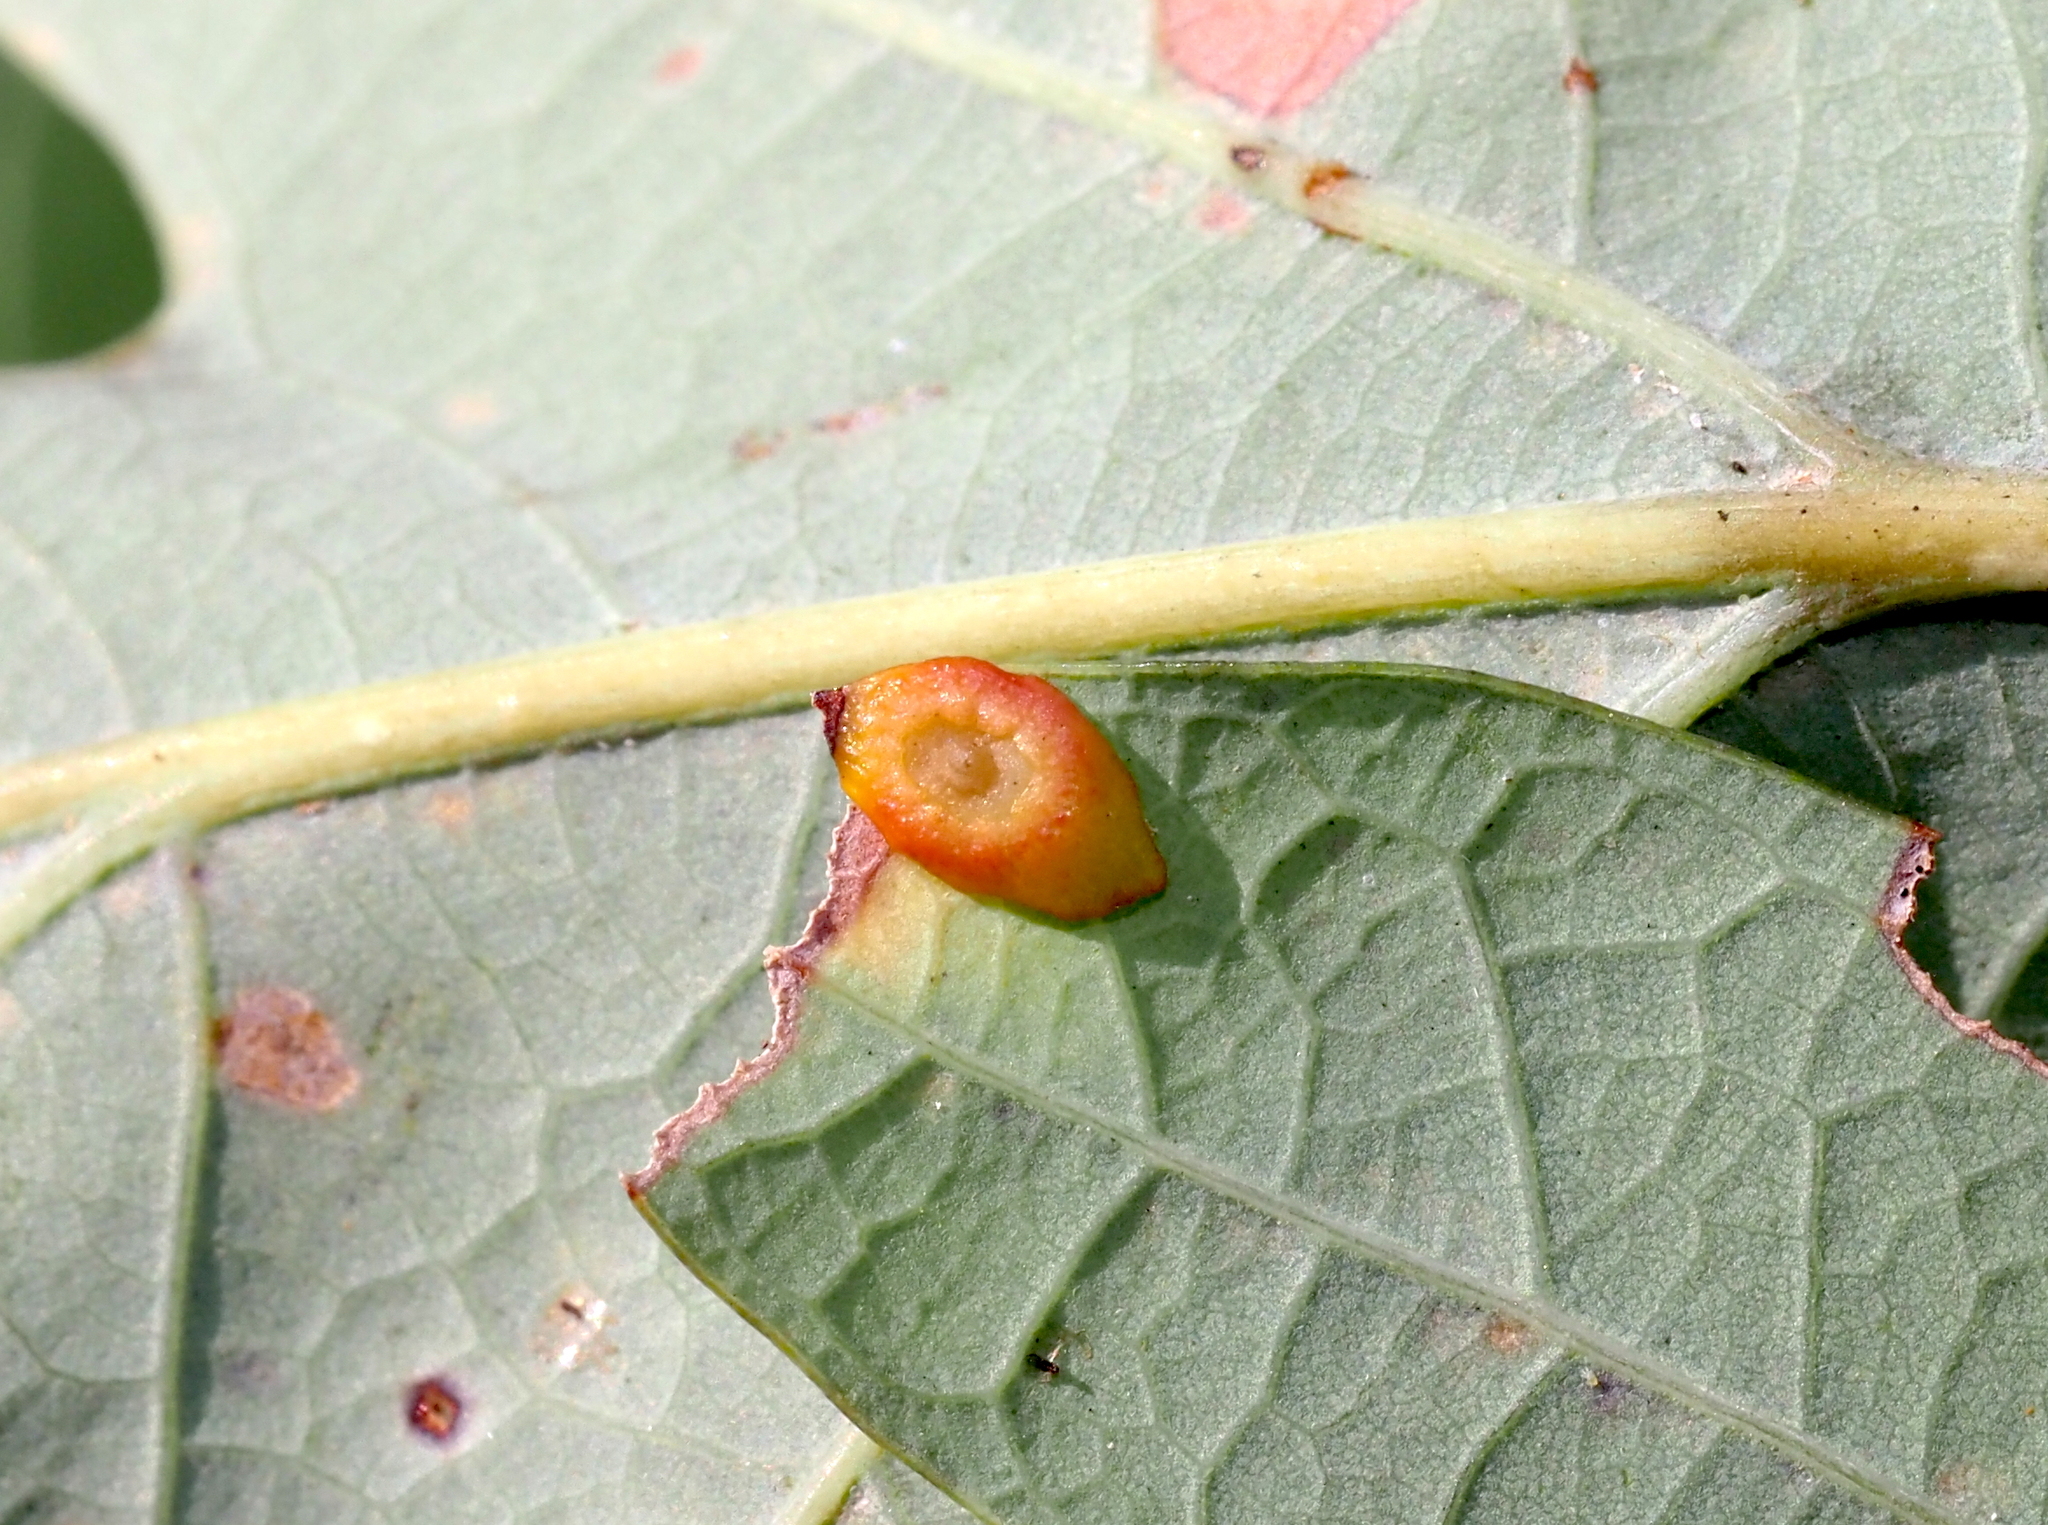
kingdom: Animalia
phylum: Arthropoda
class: Insecta
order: Hymenoptera
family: Cynipidae
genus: Phylloteras
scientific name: Phylloteras
